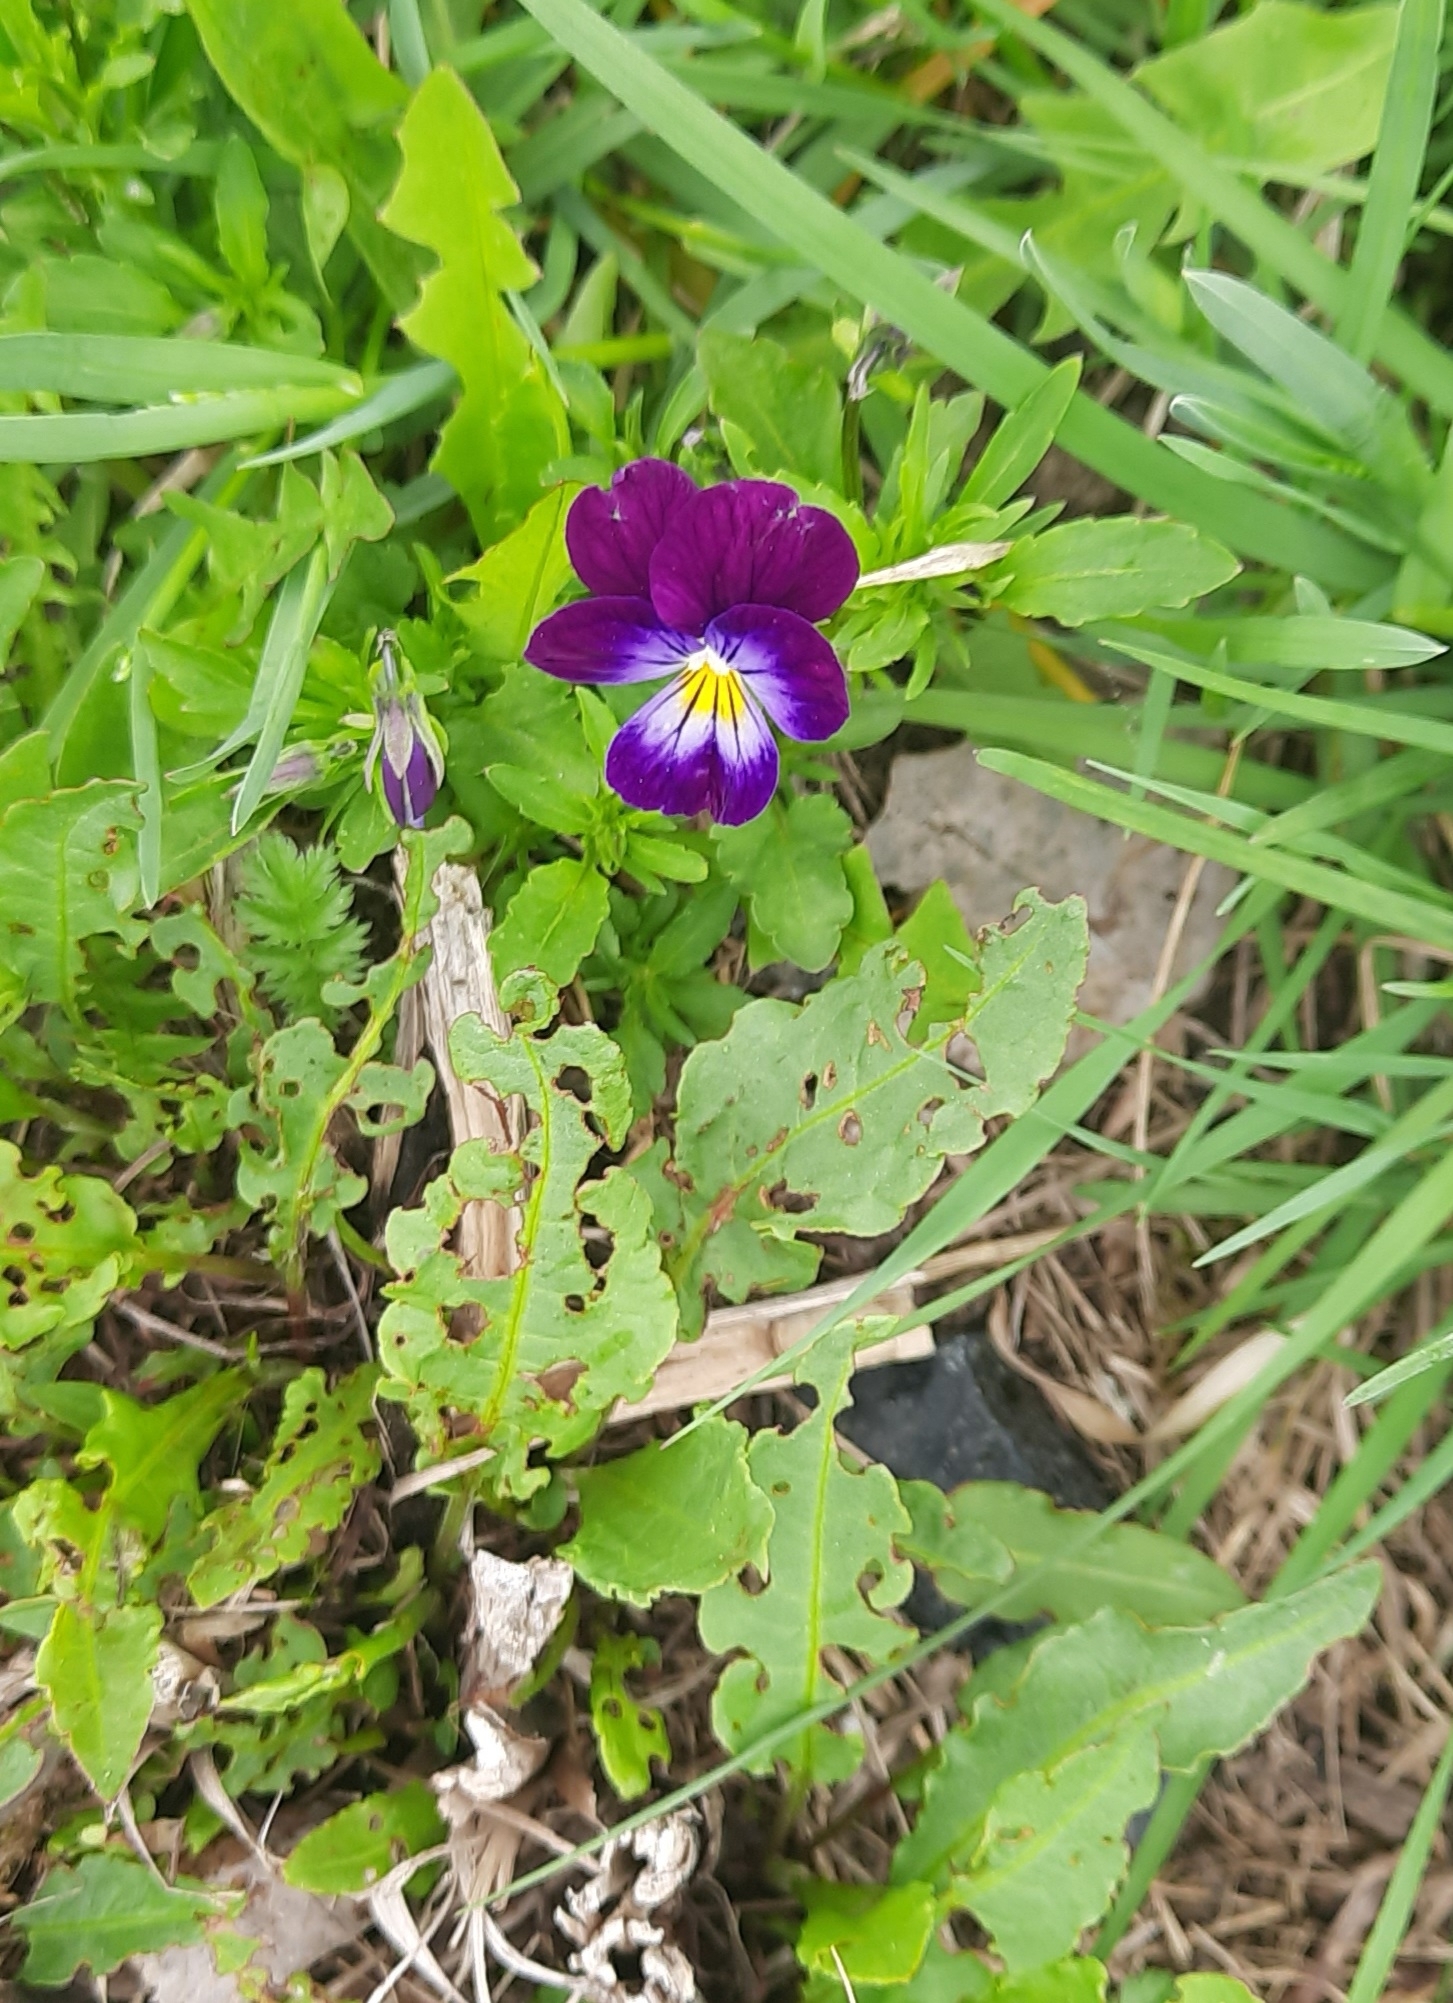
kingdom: Plantae
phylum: Tracheophyta
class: Magnoliopsida
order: Malpighiales
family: Violaceae
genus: Viola
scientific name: Viola wittrockiana
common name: Garden pansy
